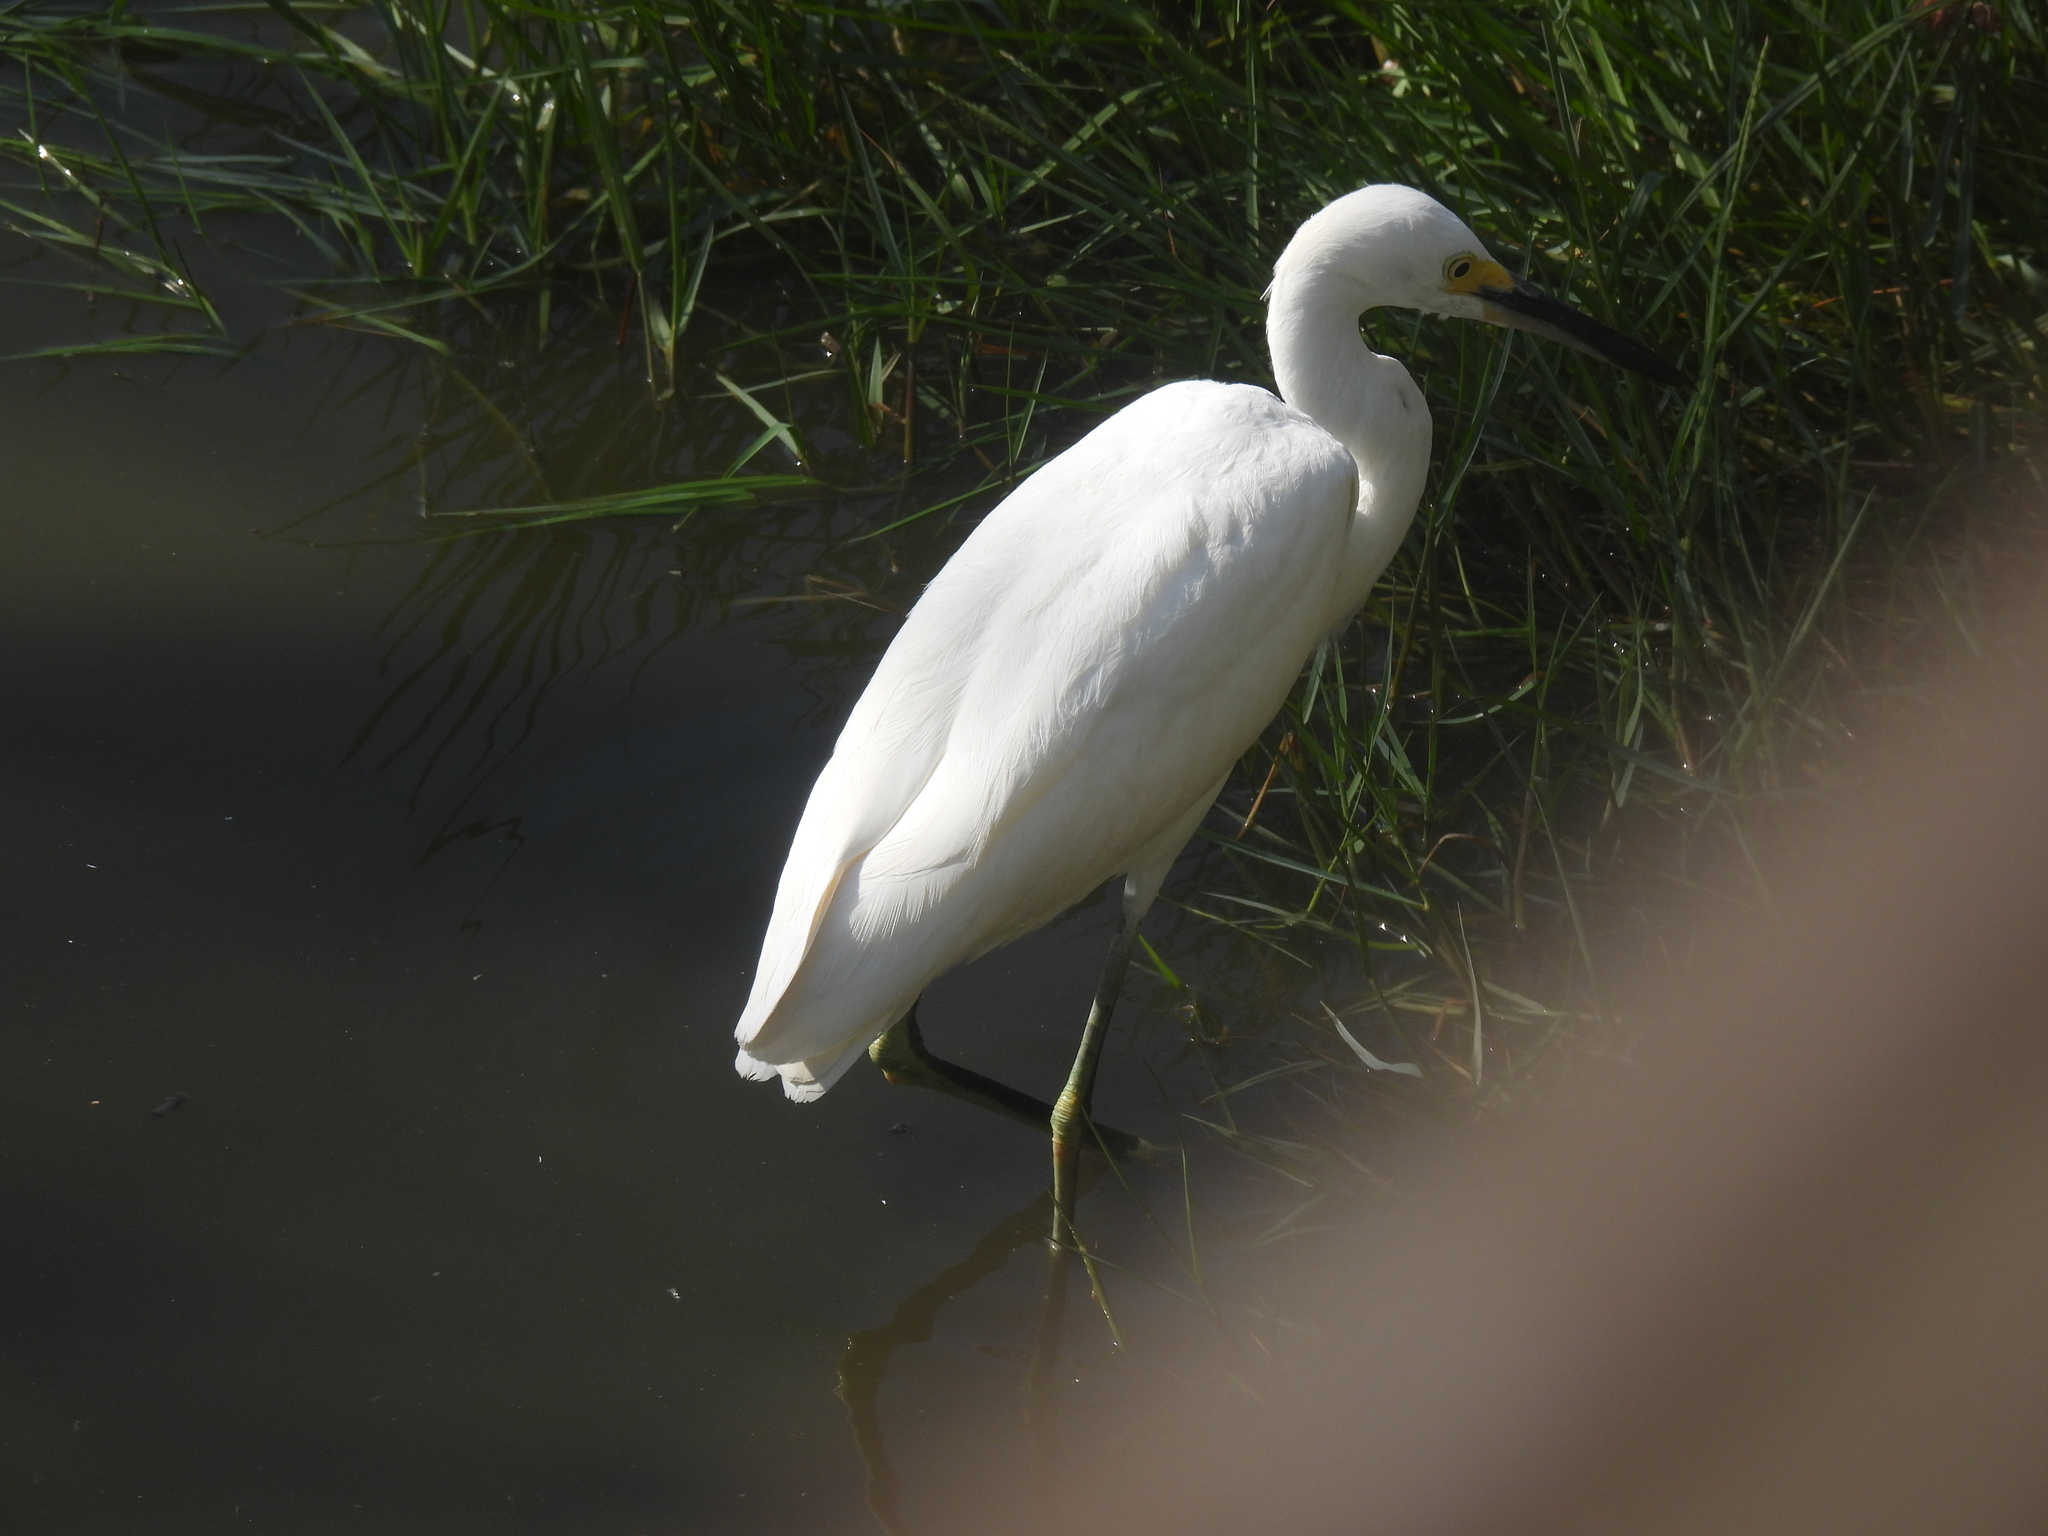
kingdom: Animalia
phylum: Chordata
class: Aves
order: Pelecaniformes
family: Ardeidae
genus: Egretta
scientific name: Egretta thula
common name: Snowy egret
